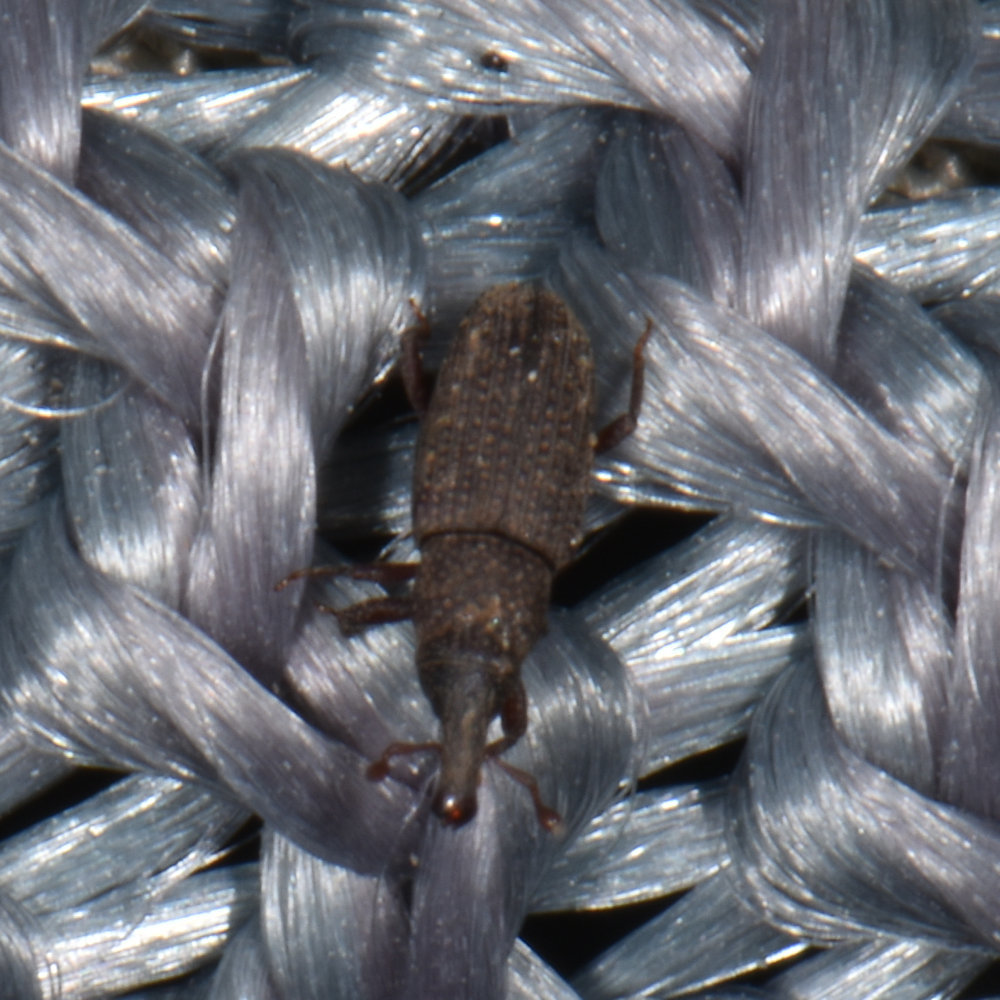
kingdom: Animalia
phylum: Arthropoda
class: Insecta
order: Coleoptera
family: Dryophthoridae
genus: Dryophthorus
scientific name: Dryophthorus americanus
